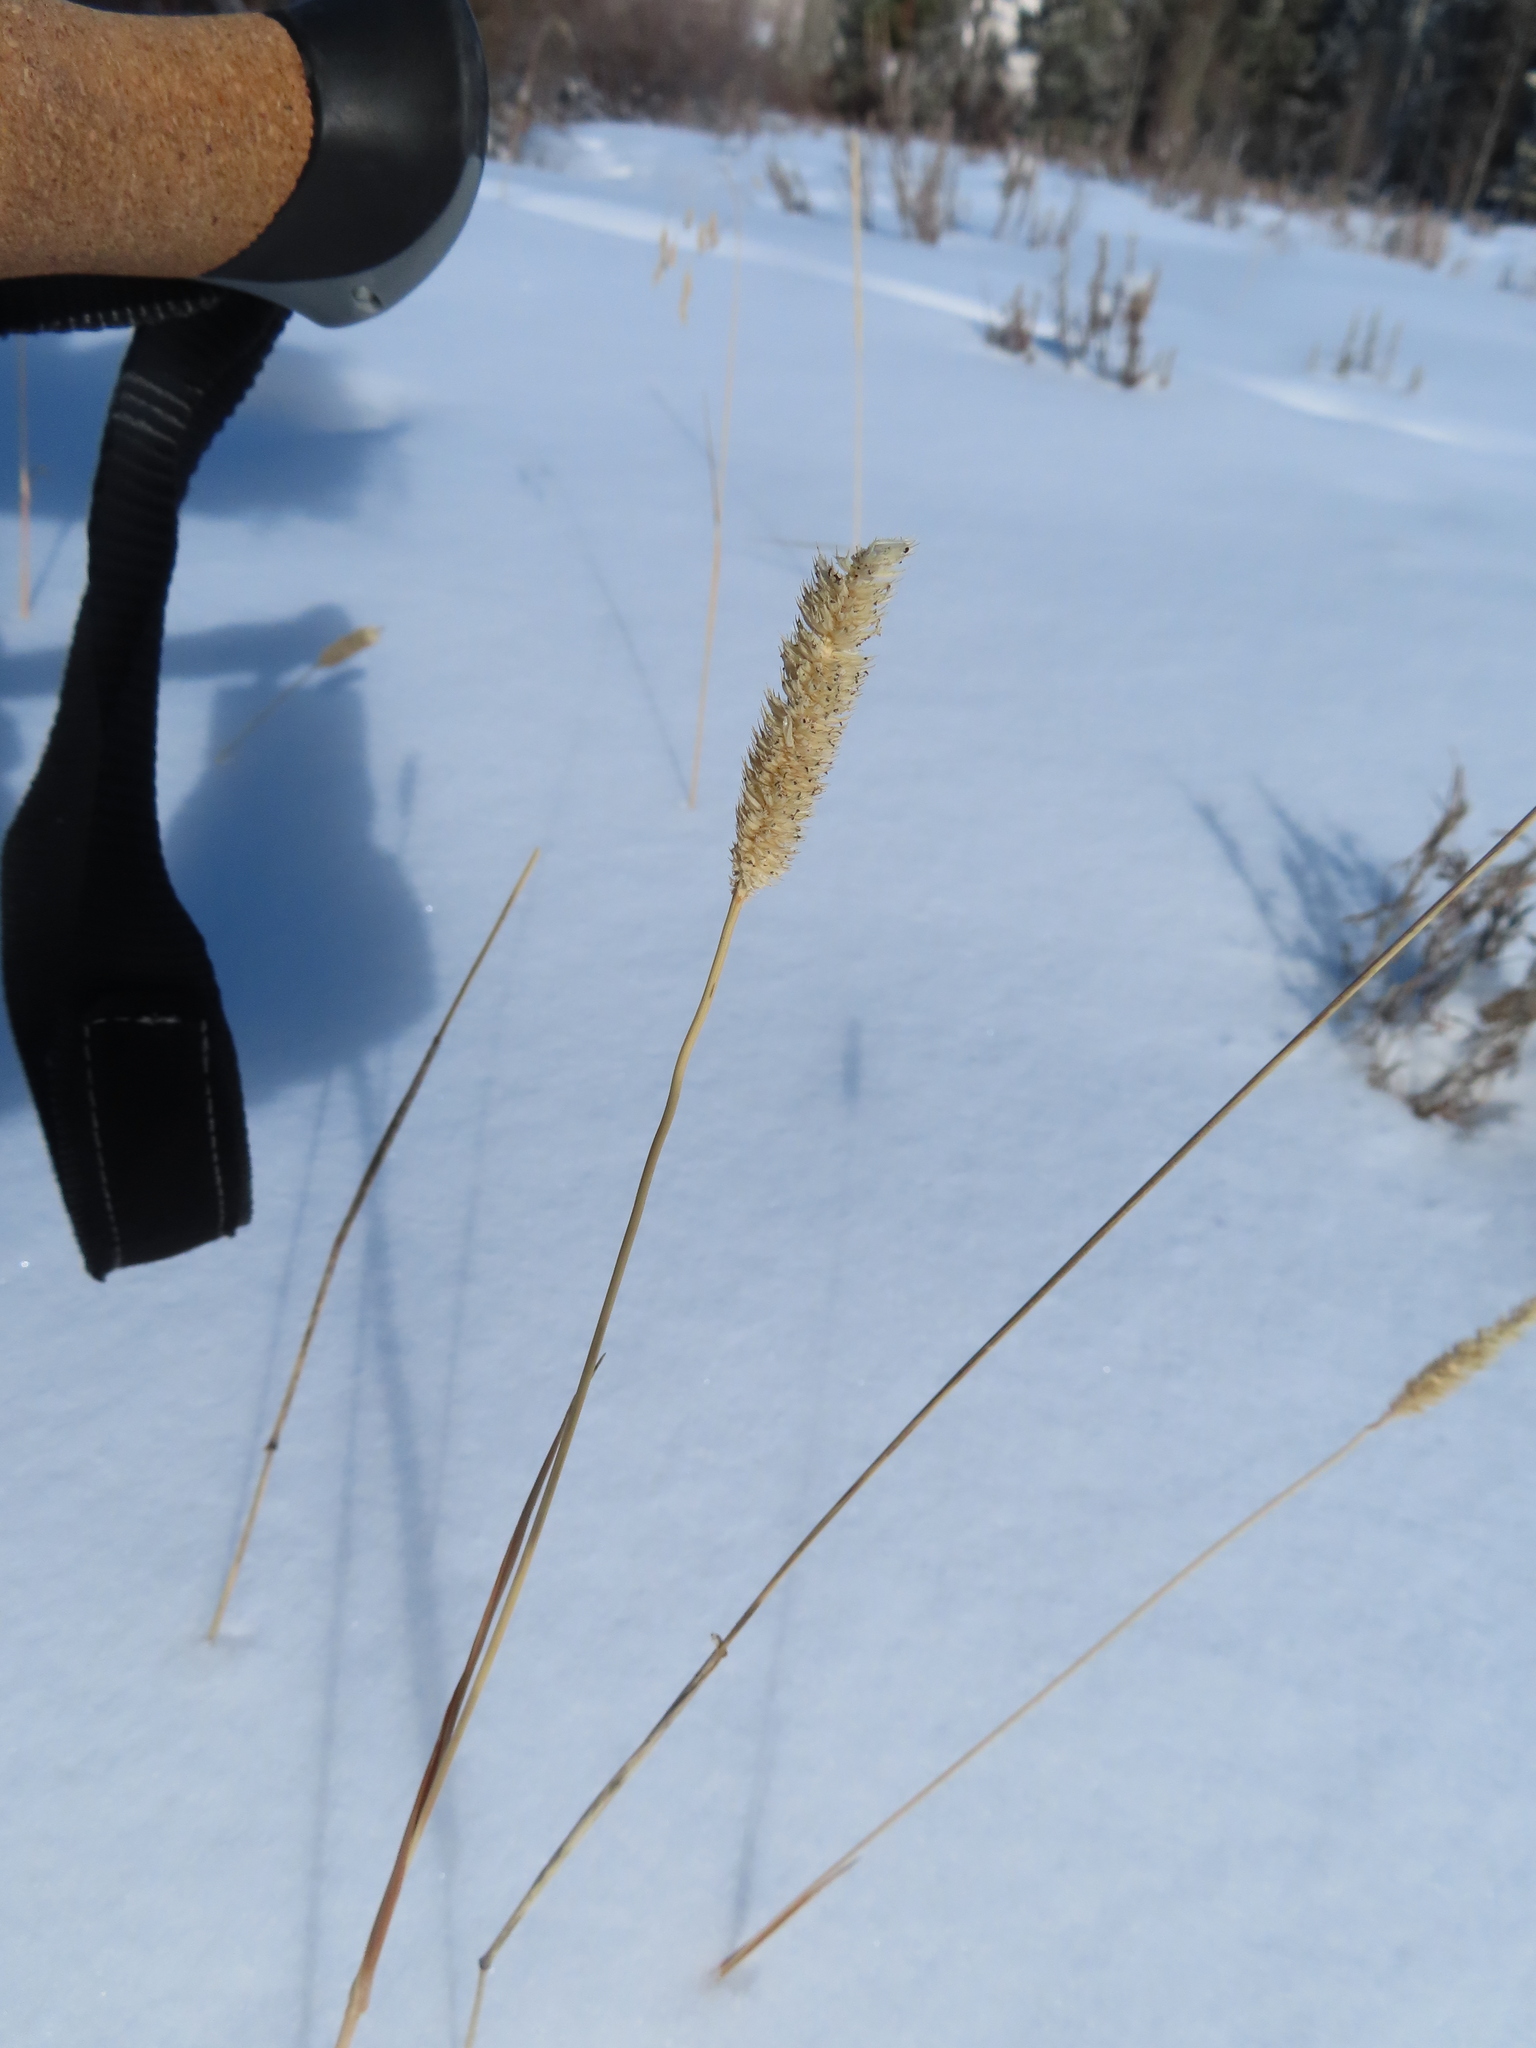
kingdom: Plantae
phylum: Tracheophyta
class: Liliopsida
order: Poales
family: Poaceae
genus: Phleum
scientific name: Phleum pratense
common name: Timothy grass
